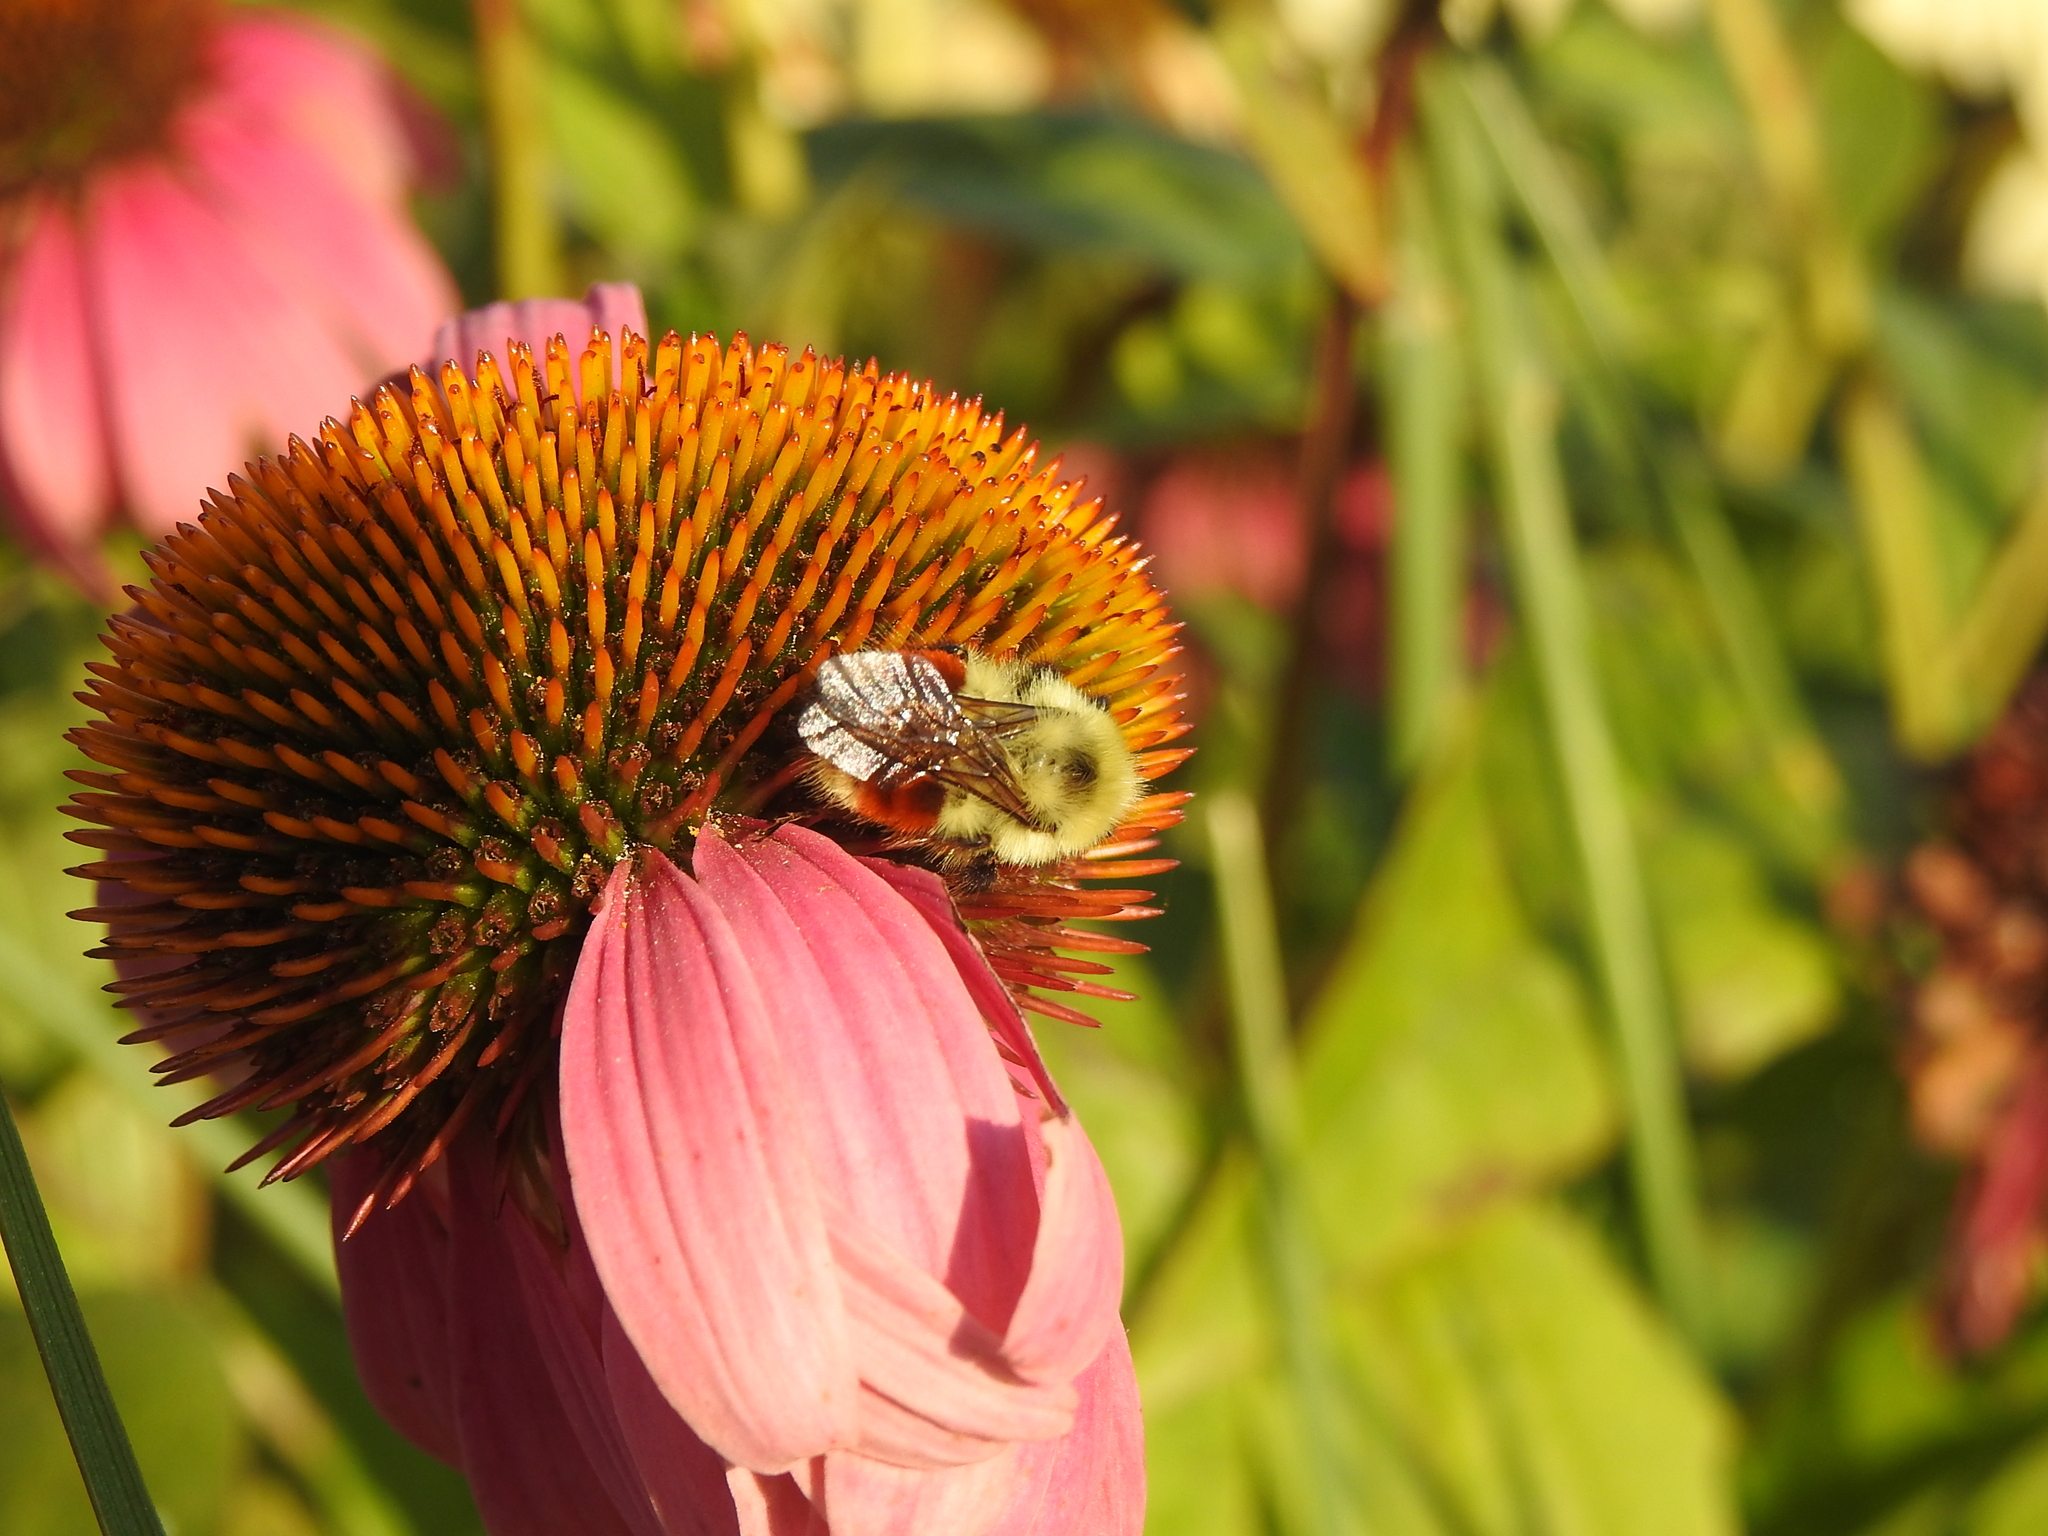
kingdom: Animalia
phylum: Arthropoda
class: Insecta
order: Hymenoptera
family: Apidae
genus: Bombus
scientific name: Bombus huntii
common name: Hunt bumble bee
